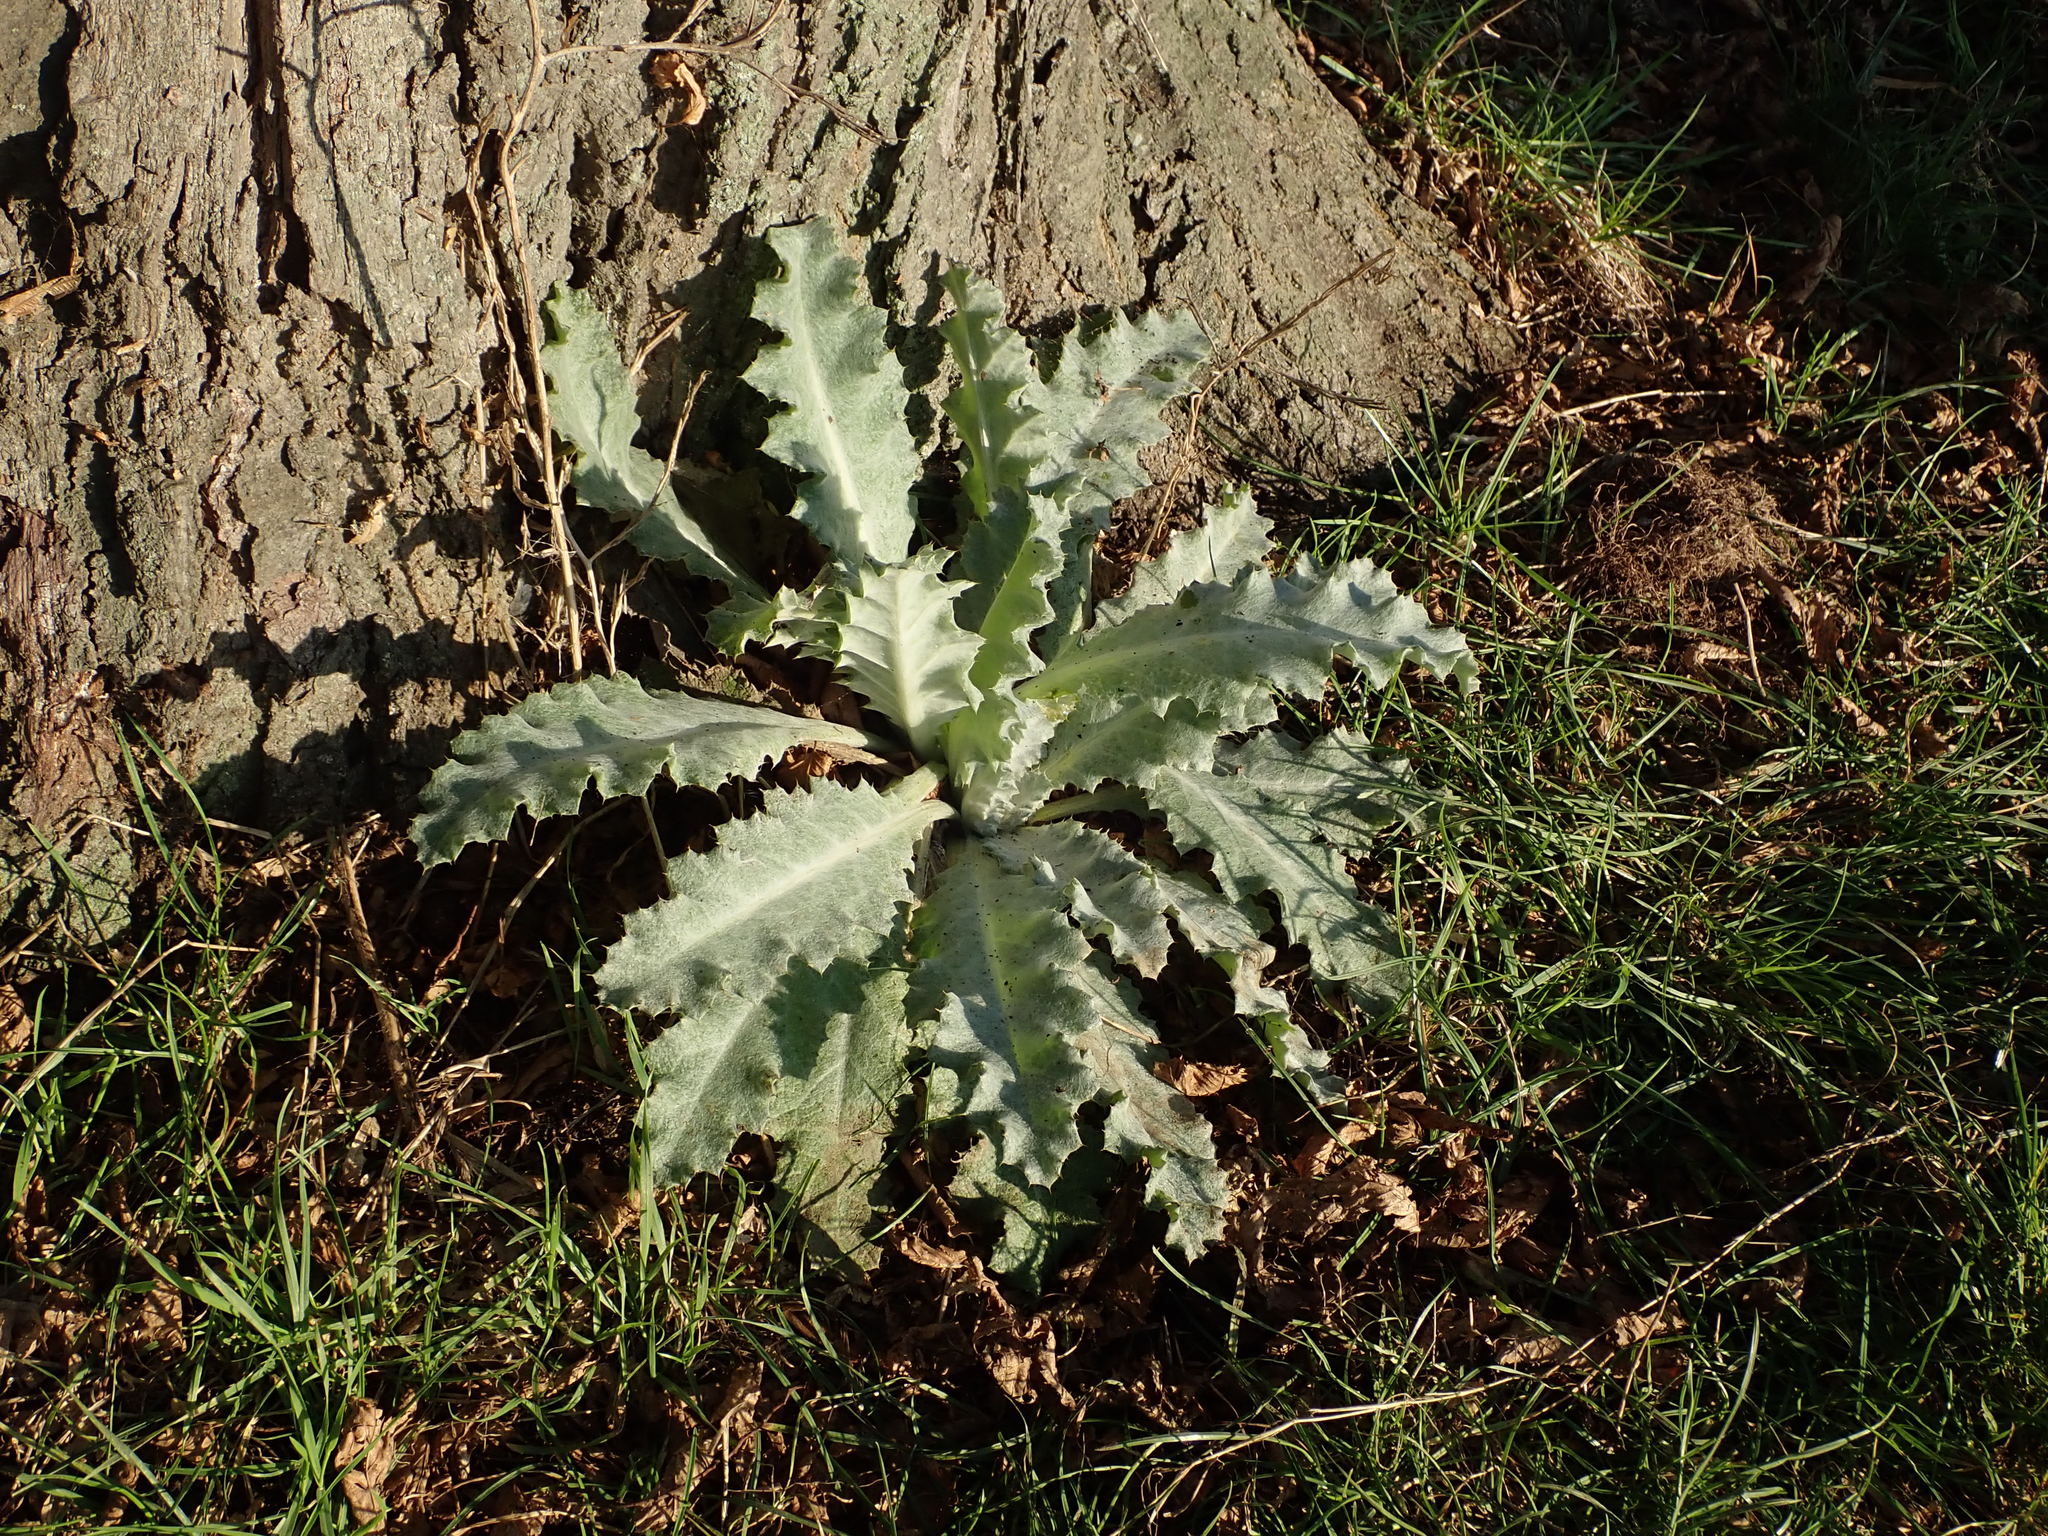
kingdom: Plantae
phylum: Tracheophyta
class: Magnoliopsida
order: Asterales
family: Asteraceae
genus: Onopordum
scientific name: Onopordum acanthium
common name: Scotch thistle
